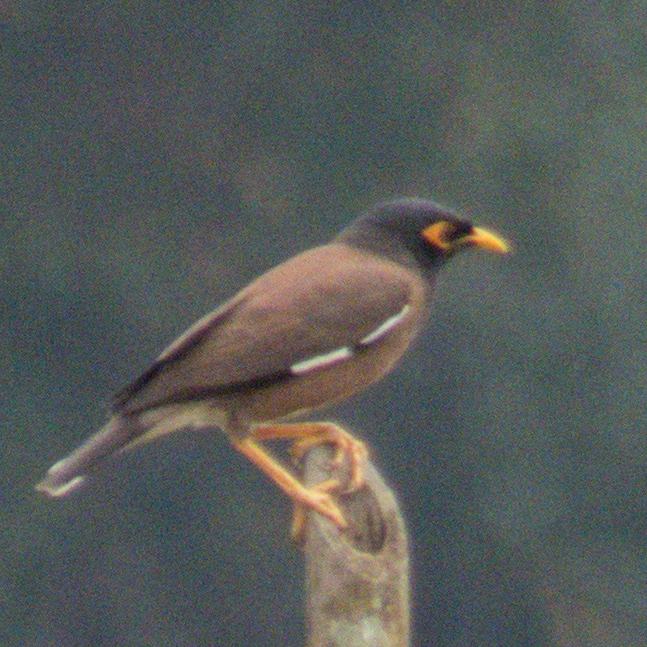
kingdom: Animalia
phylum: Chordata
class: Aves
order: Passeriformes
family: Sturnidae
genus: Acridotheres
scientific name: Acridotheres tristis
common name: Common myna
